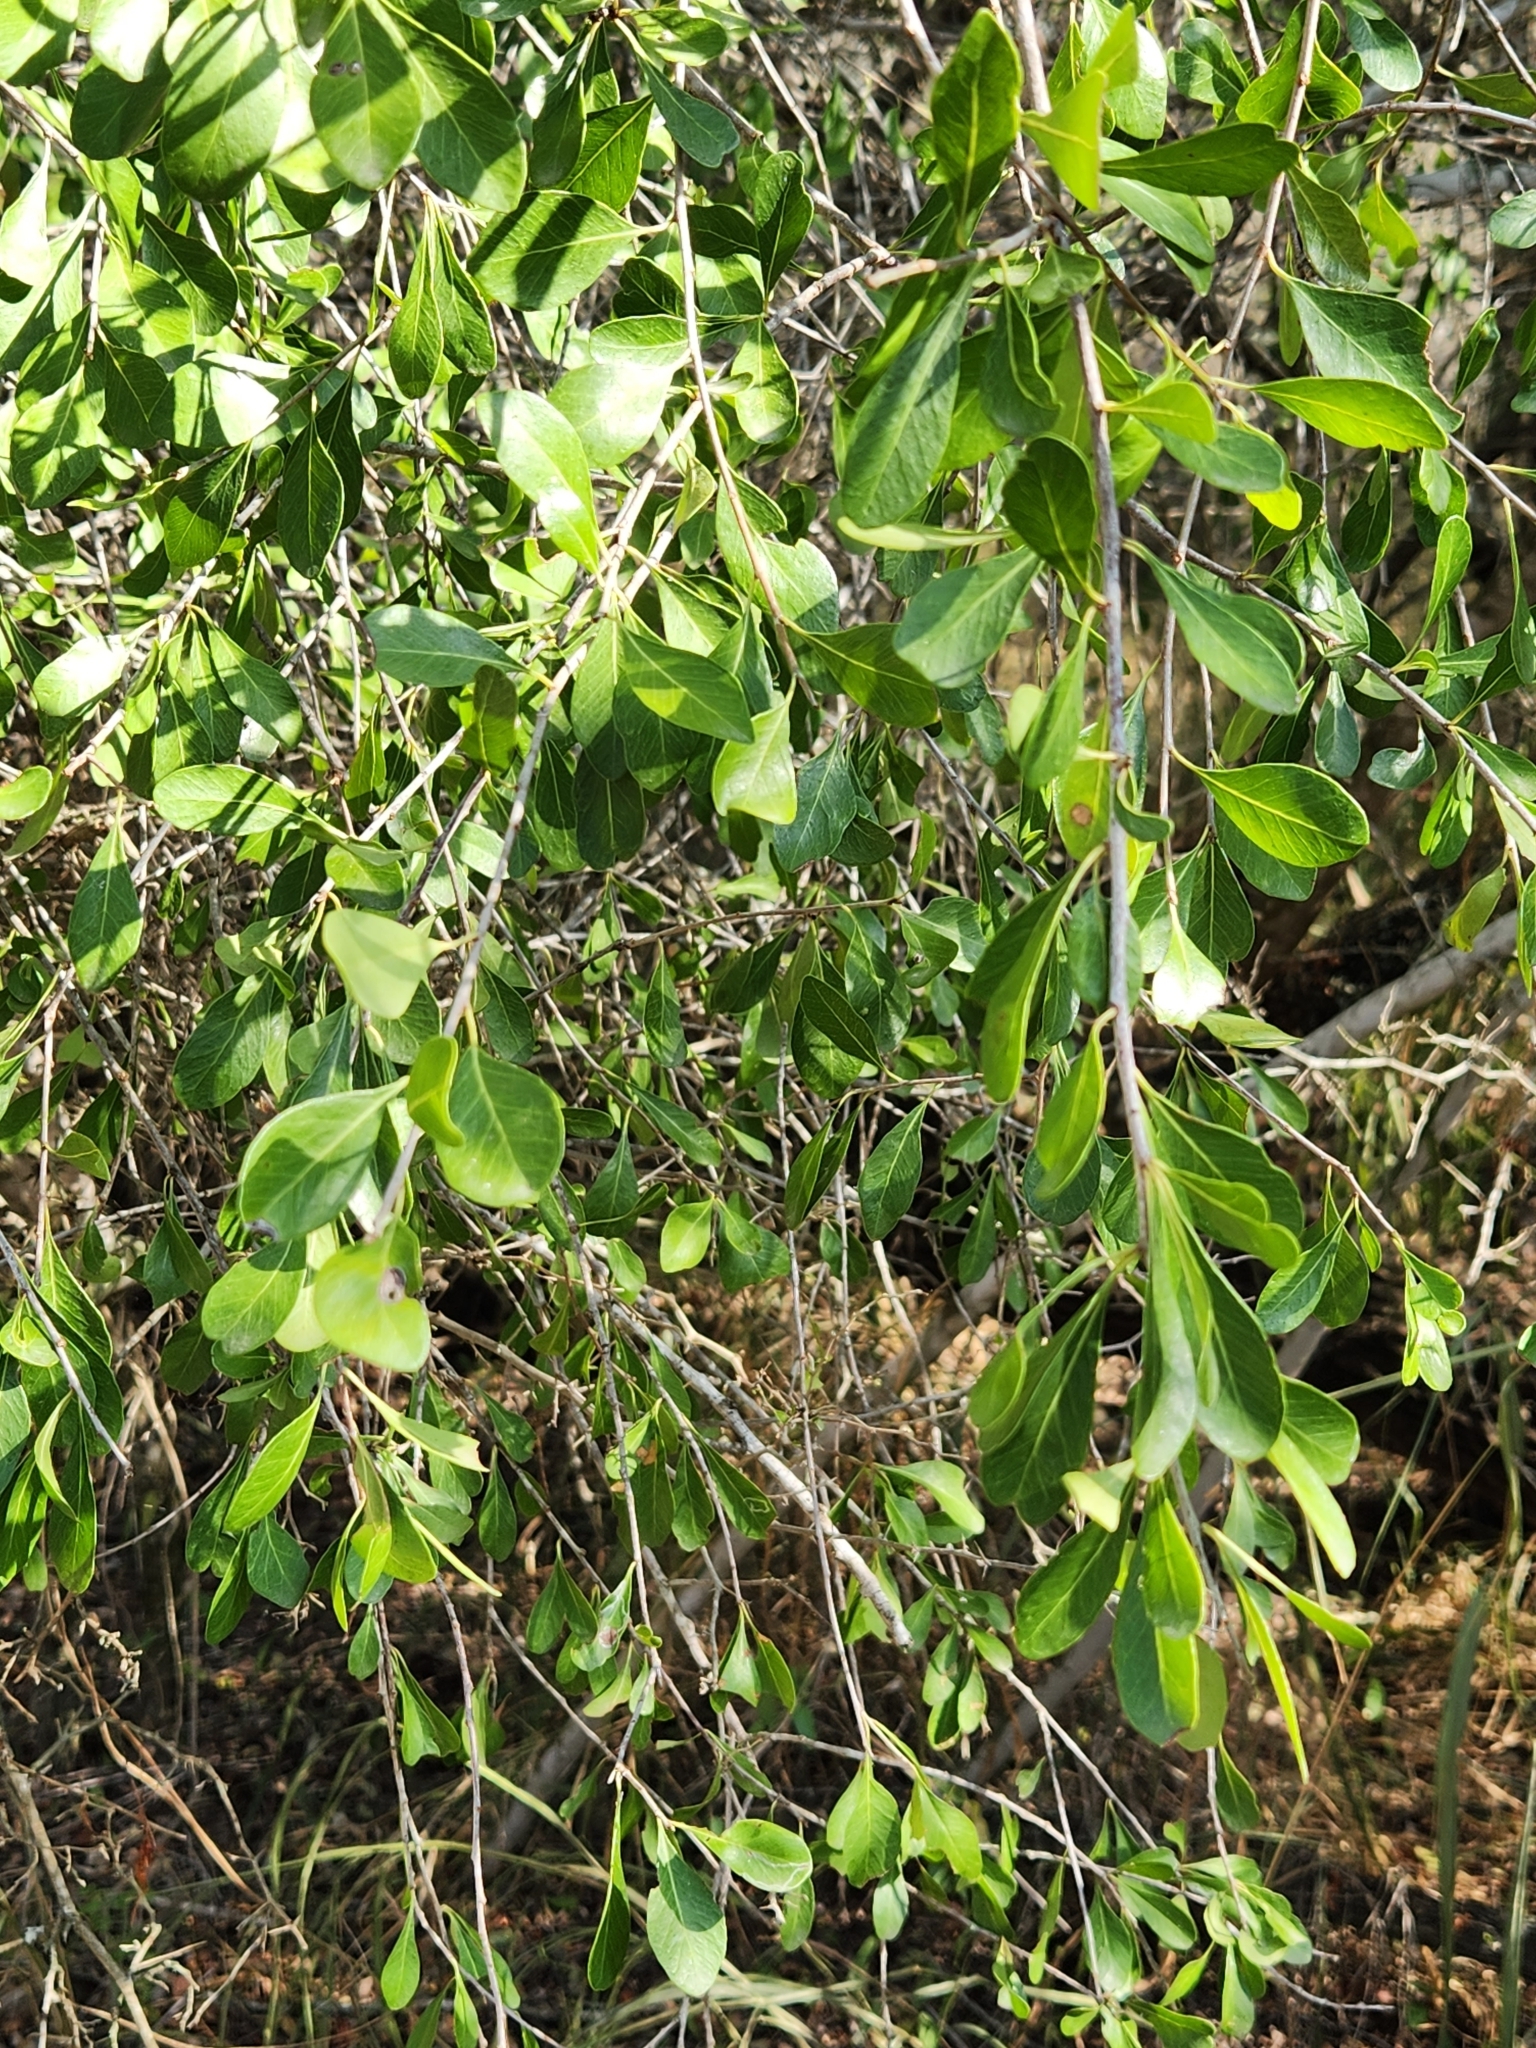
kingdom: Plantae
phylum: Tracheophyta
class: Magnoliopsida
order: Ericales
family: Sapotaceae
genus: Sideroxylon
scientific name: Sideroxylon celastrinum
